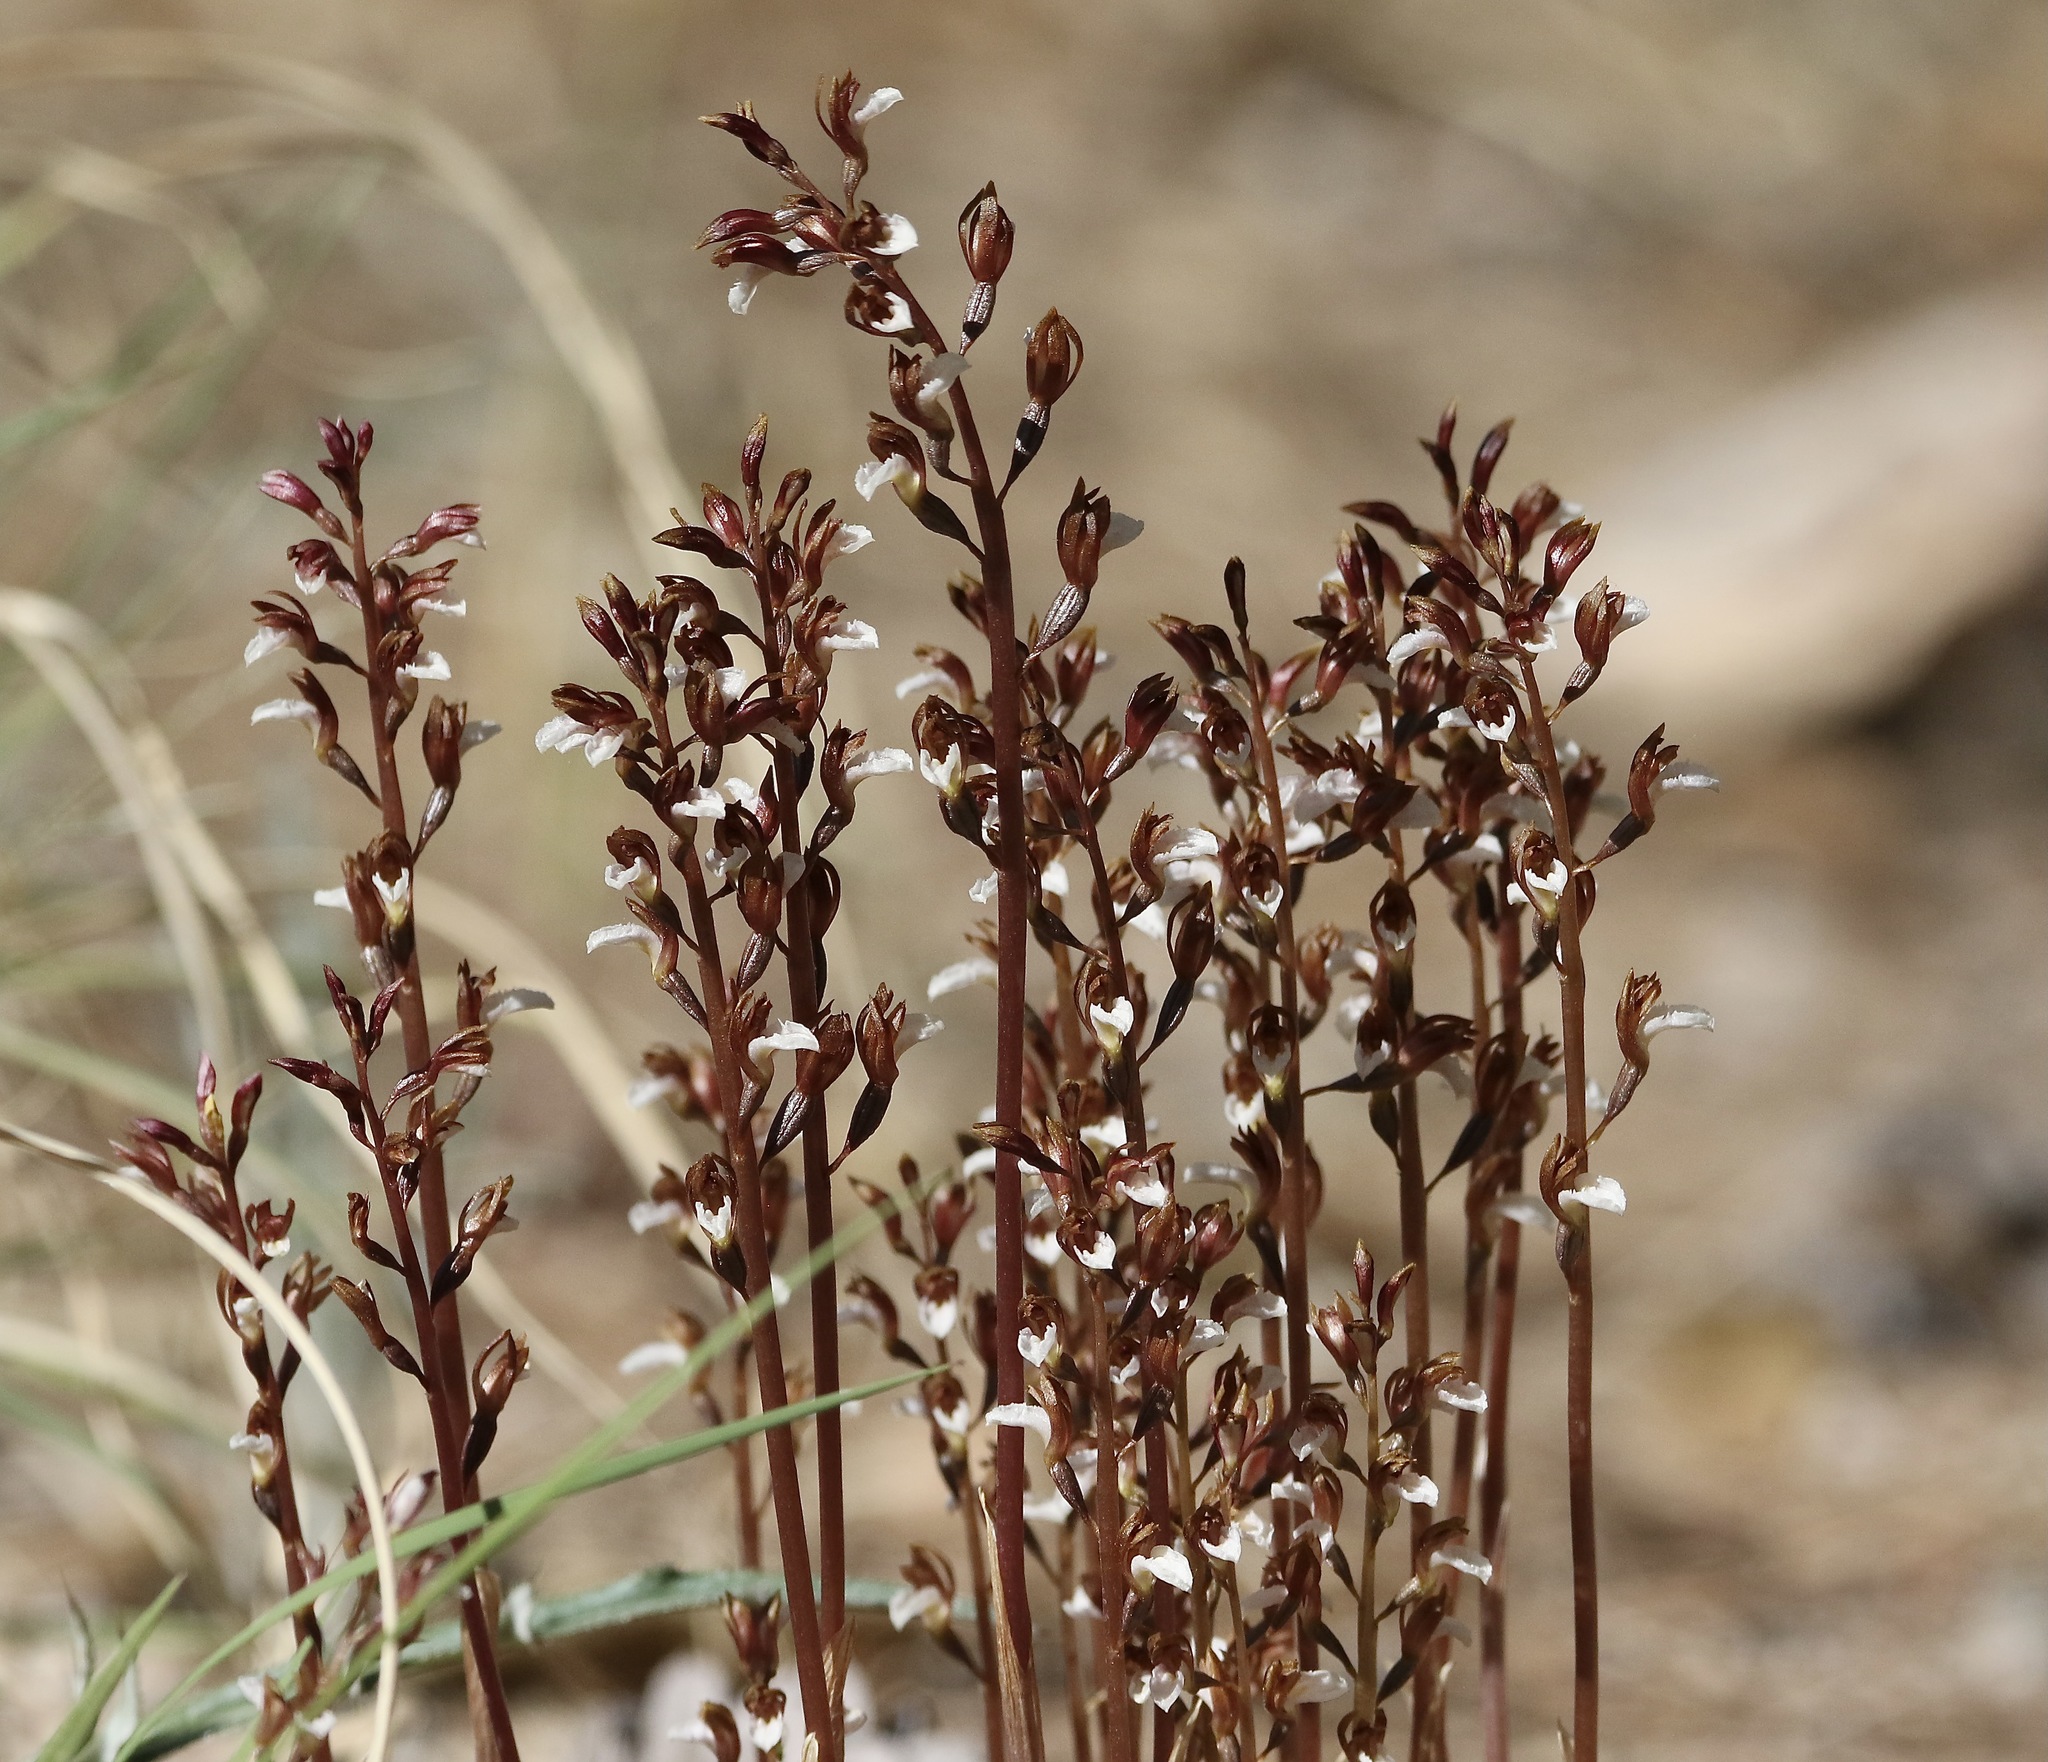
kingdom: Plantae
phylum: Tracheophyta
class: Liliopsida
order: Asparagales
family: Orchidaceae
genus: Corallorhiza
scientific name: Corallorhiza wisteriana
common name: Spring coralroot
